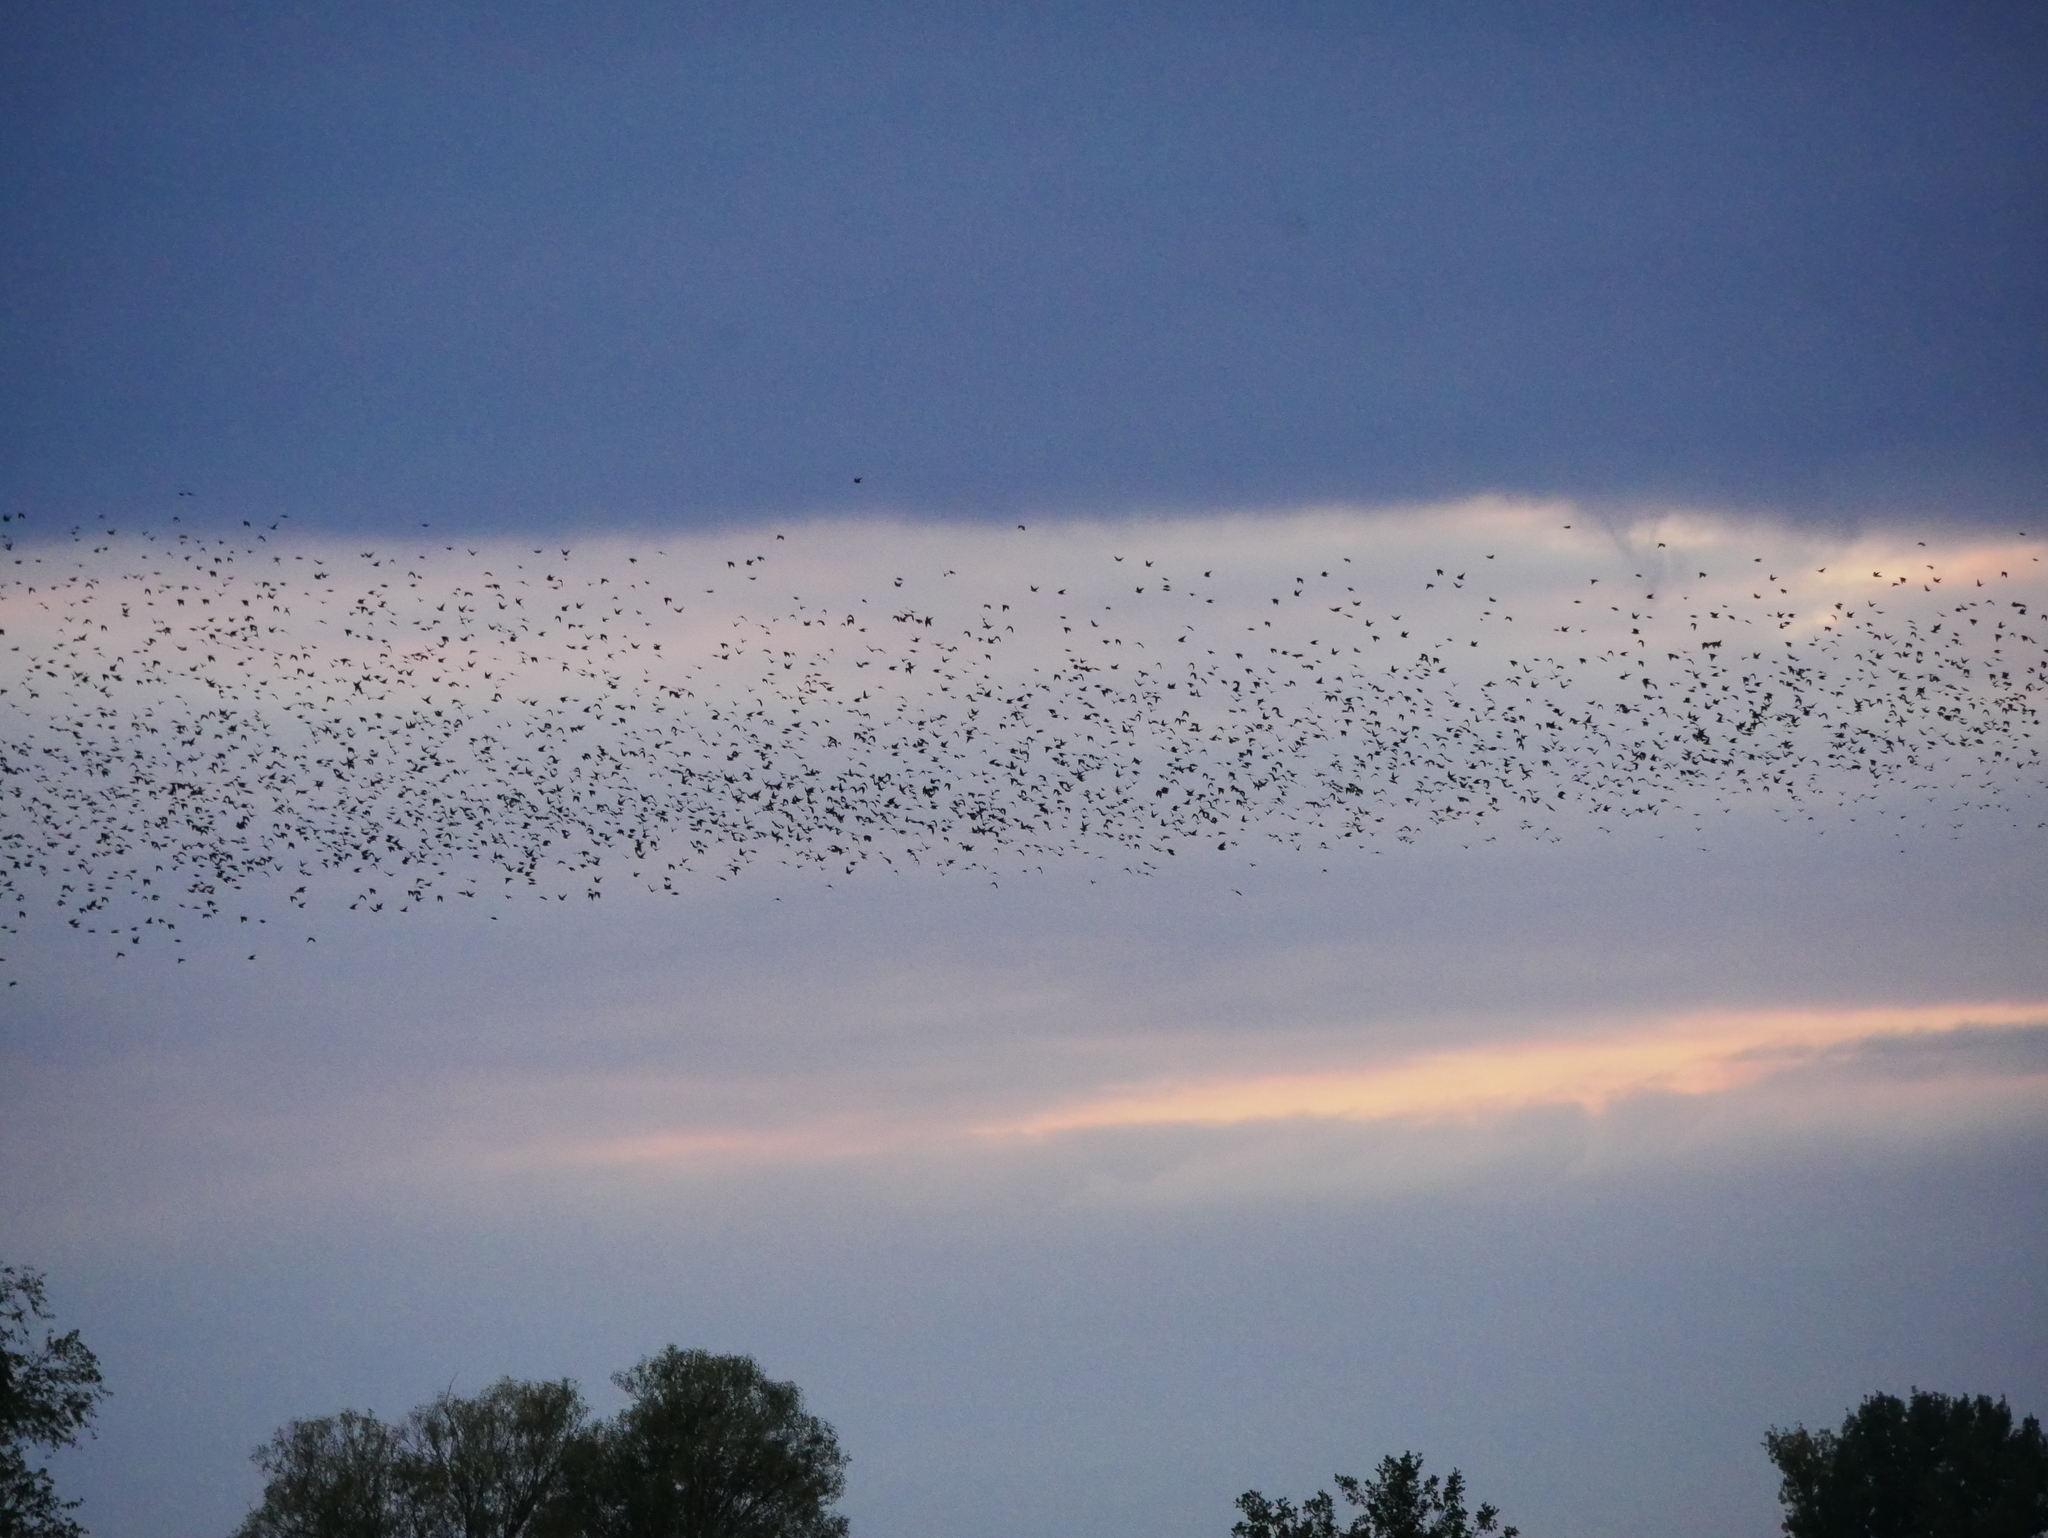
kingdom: Animalia
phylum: Chordata
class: Aves
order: Passeriformes
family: Sturnidae
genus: Sturnus
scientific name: Sturnus vulgaris
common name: Common starling
